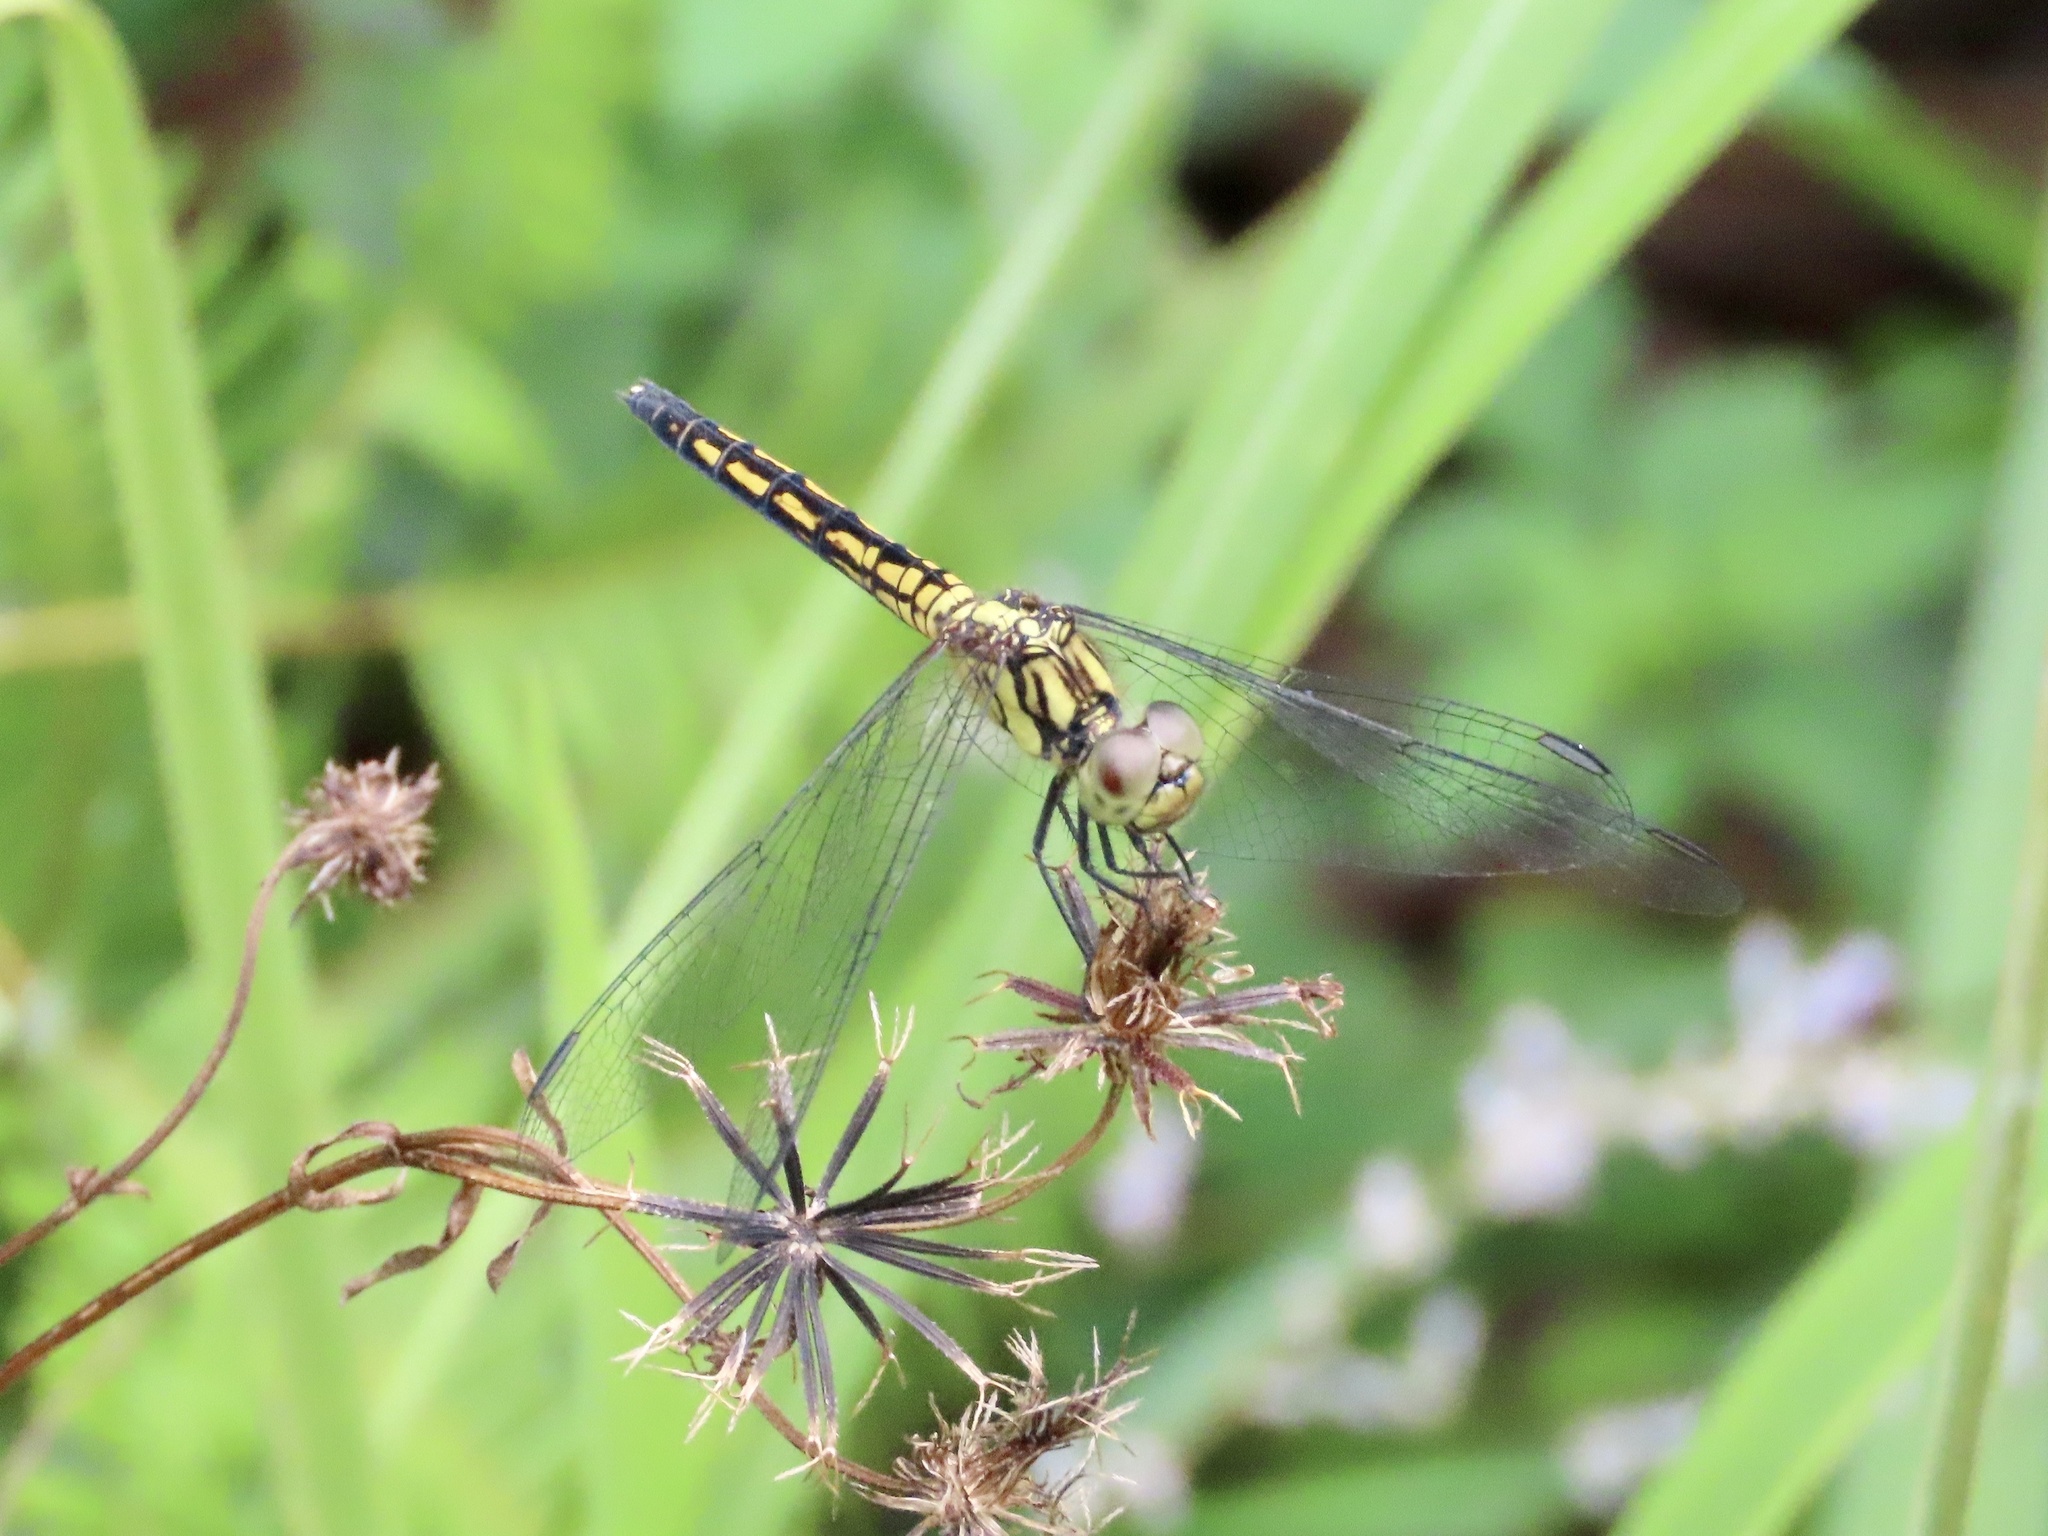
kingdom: Animalia
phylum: Arthropoda
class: Insecta
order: Odonata
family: Libellulidae
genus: Indothemis
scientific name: Indothemis carnatica
